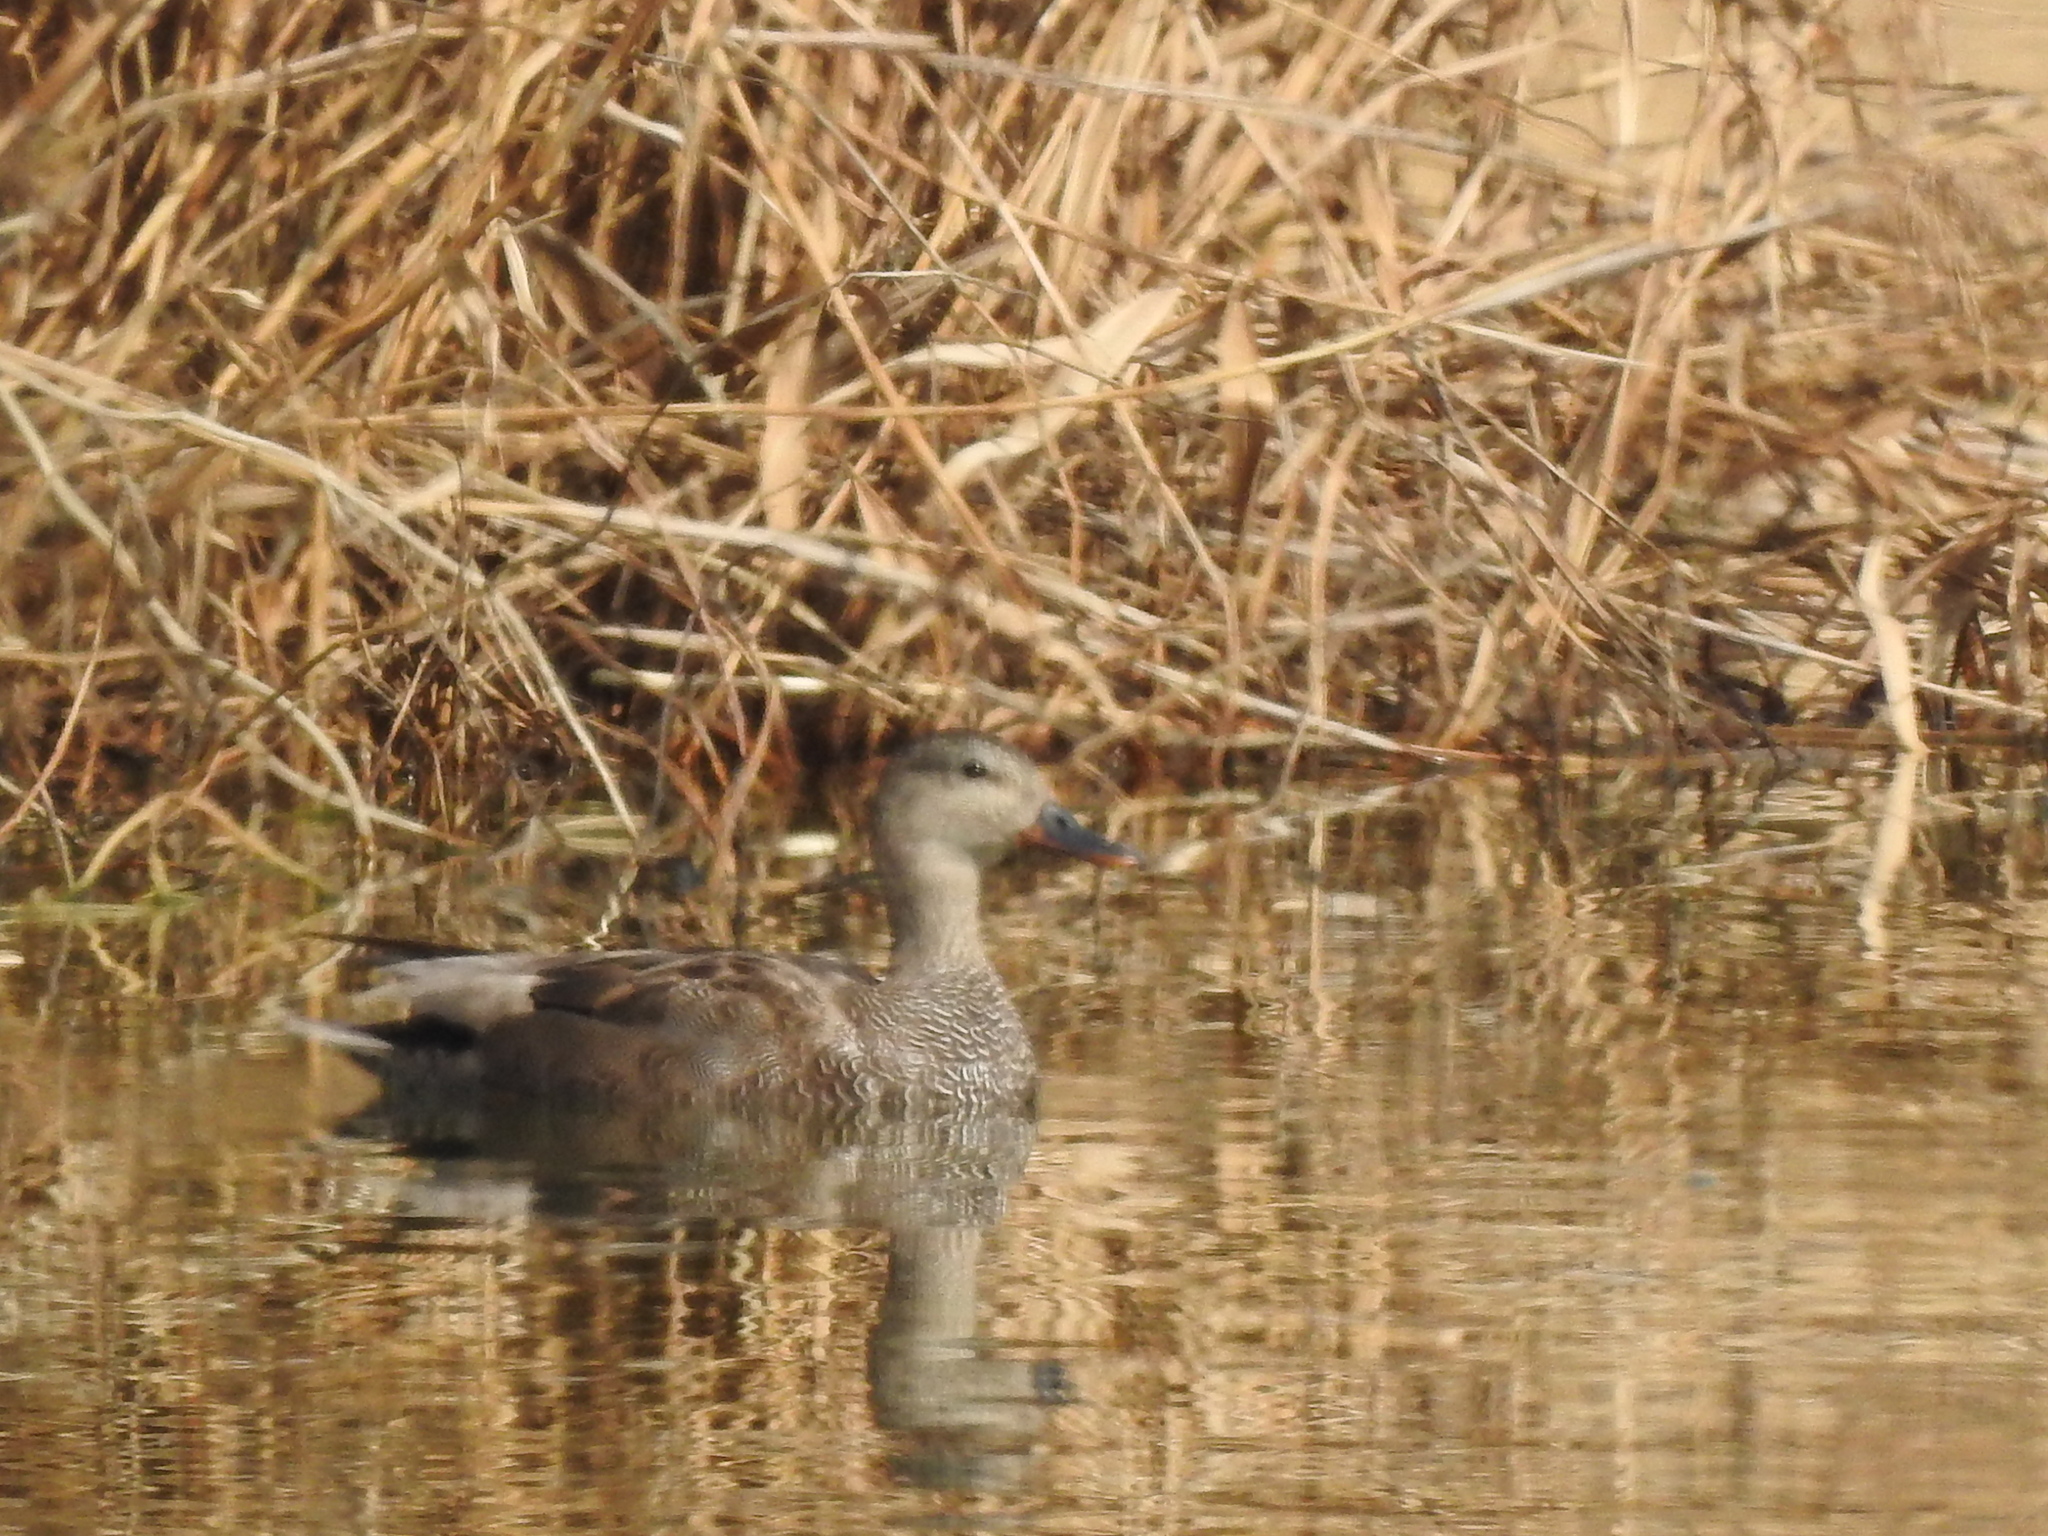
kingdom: Animalia
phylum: Chordata
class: Aves
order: Anseriformes
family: Anatidae
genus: Mareca
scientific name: Mareca strepera
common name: Gadwall
